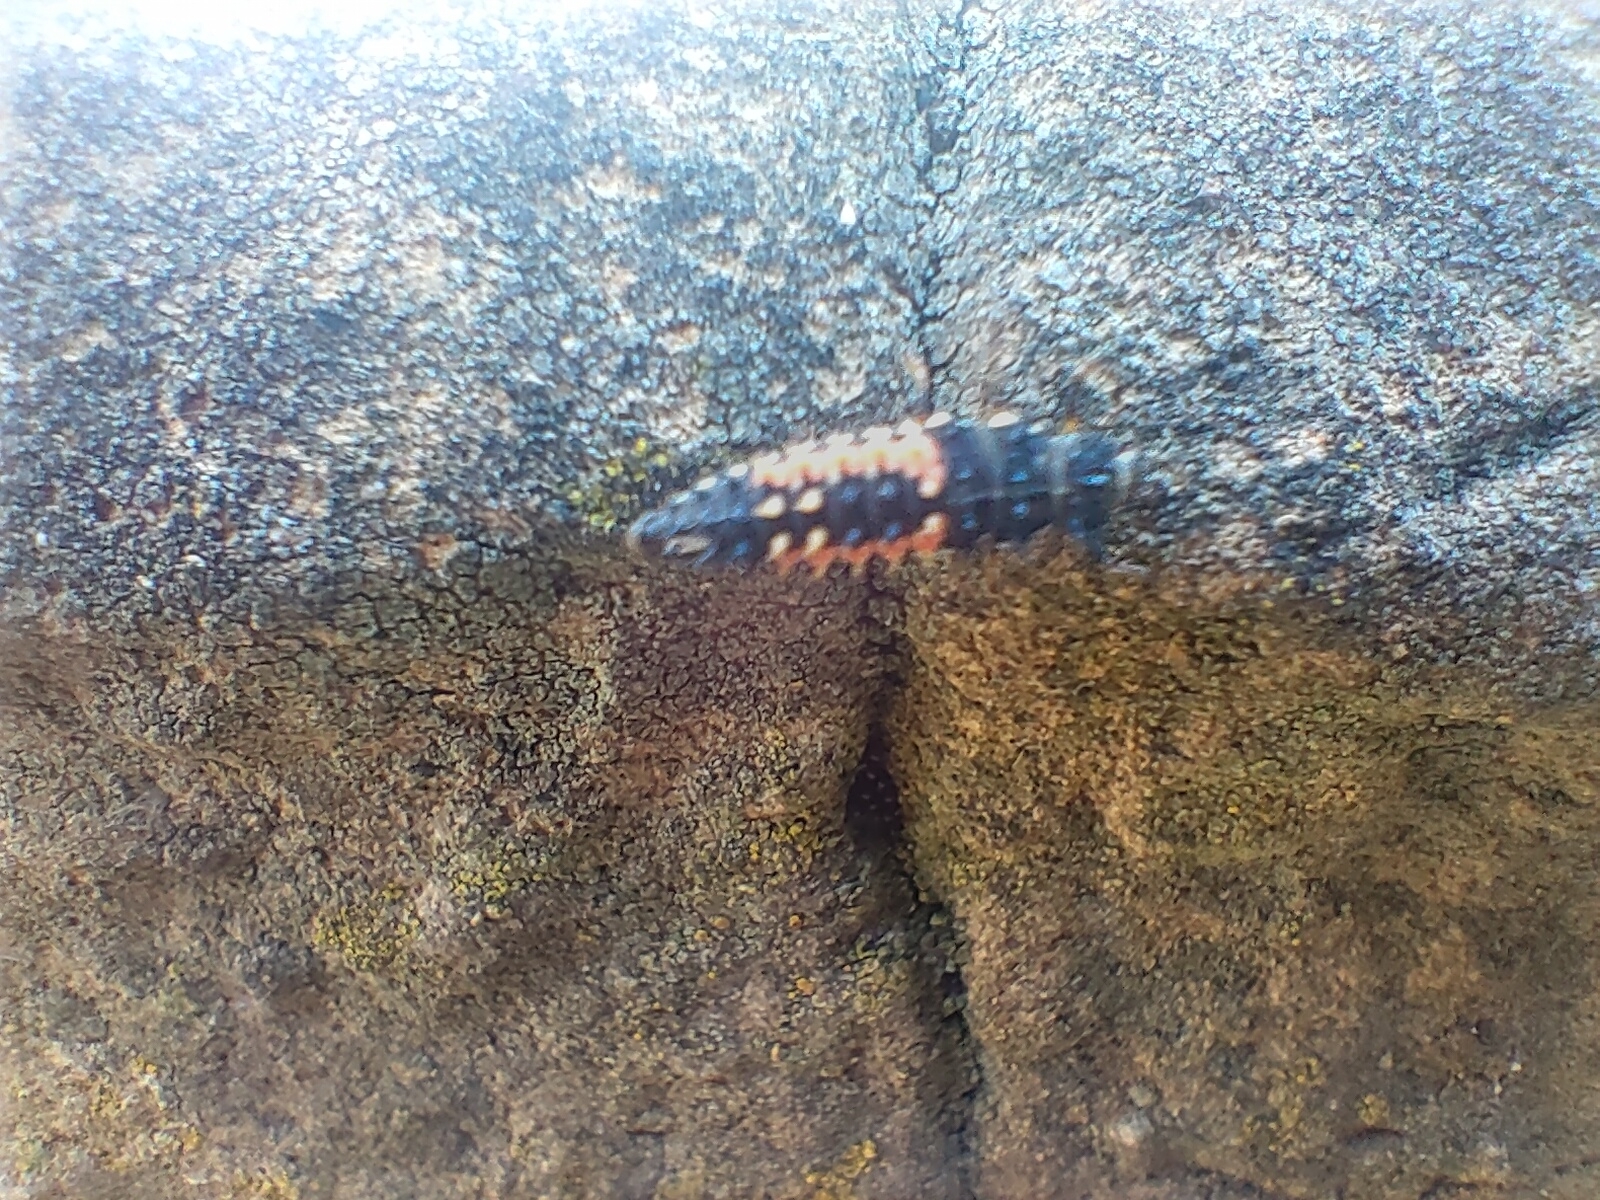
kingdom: Animalia
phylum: Arthropoda
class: Insecta
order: Coleoptera
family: Coccinellidae
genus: Harmonia
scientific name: Harmonia axyridis
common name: Harlequin ladybird
